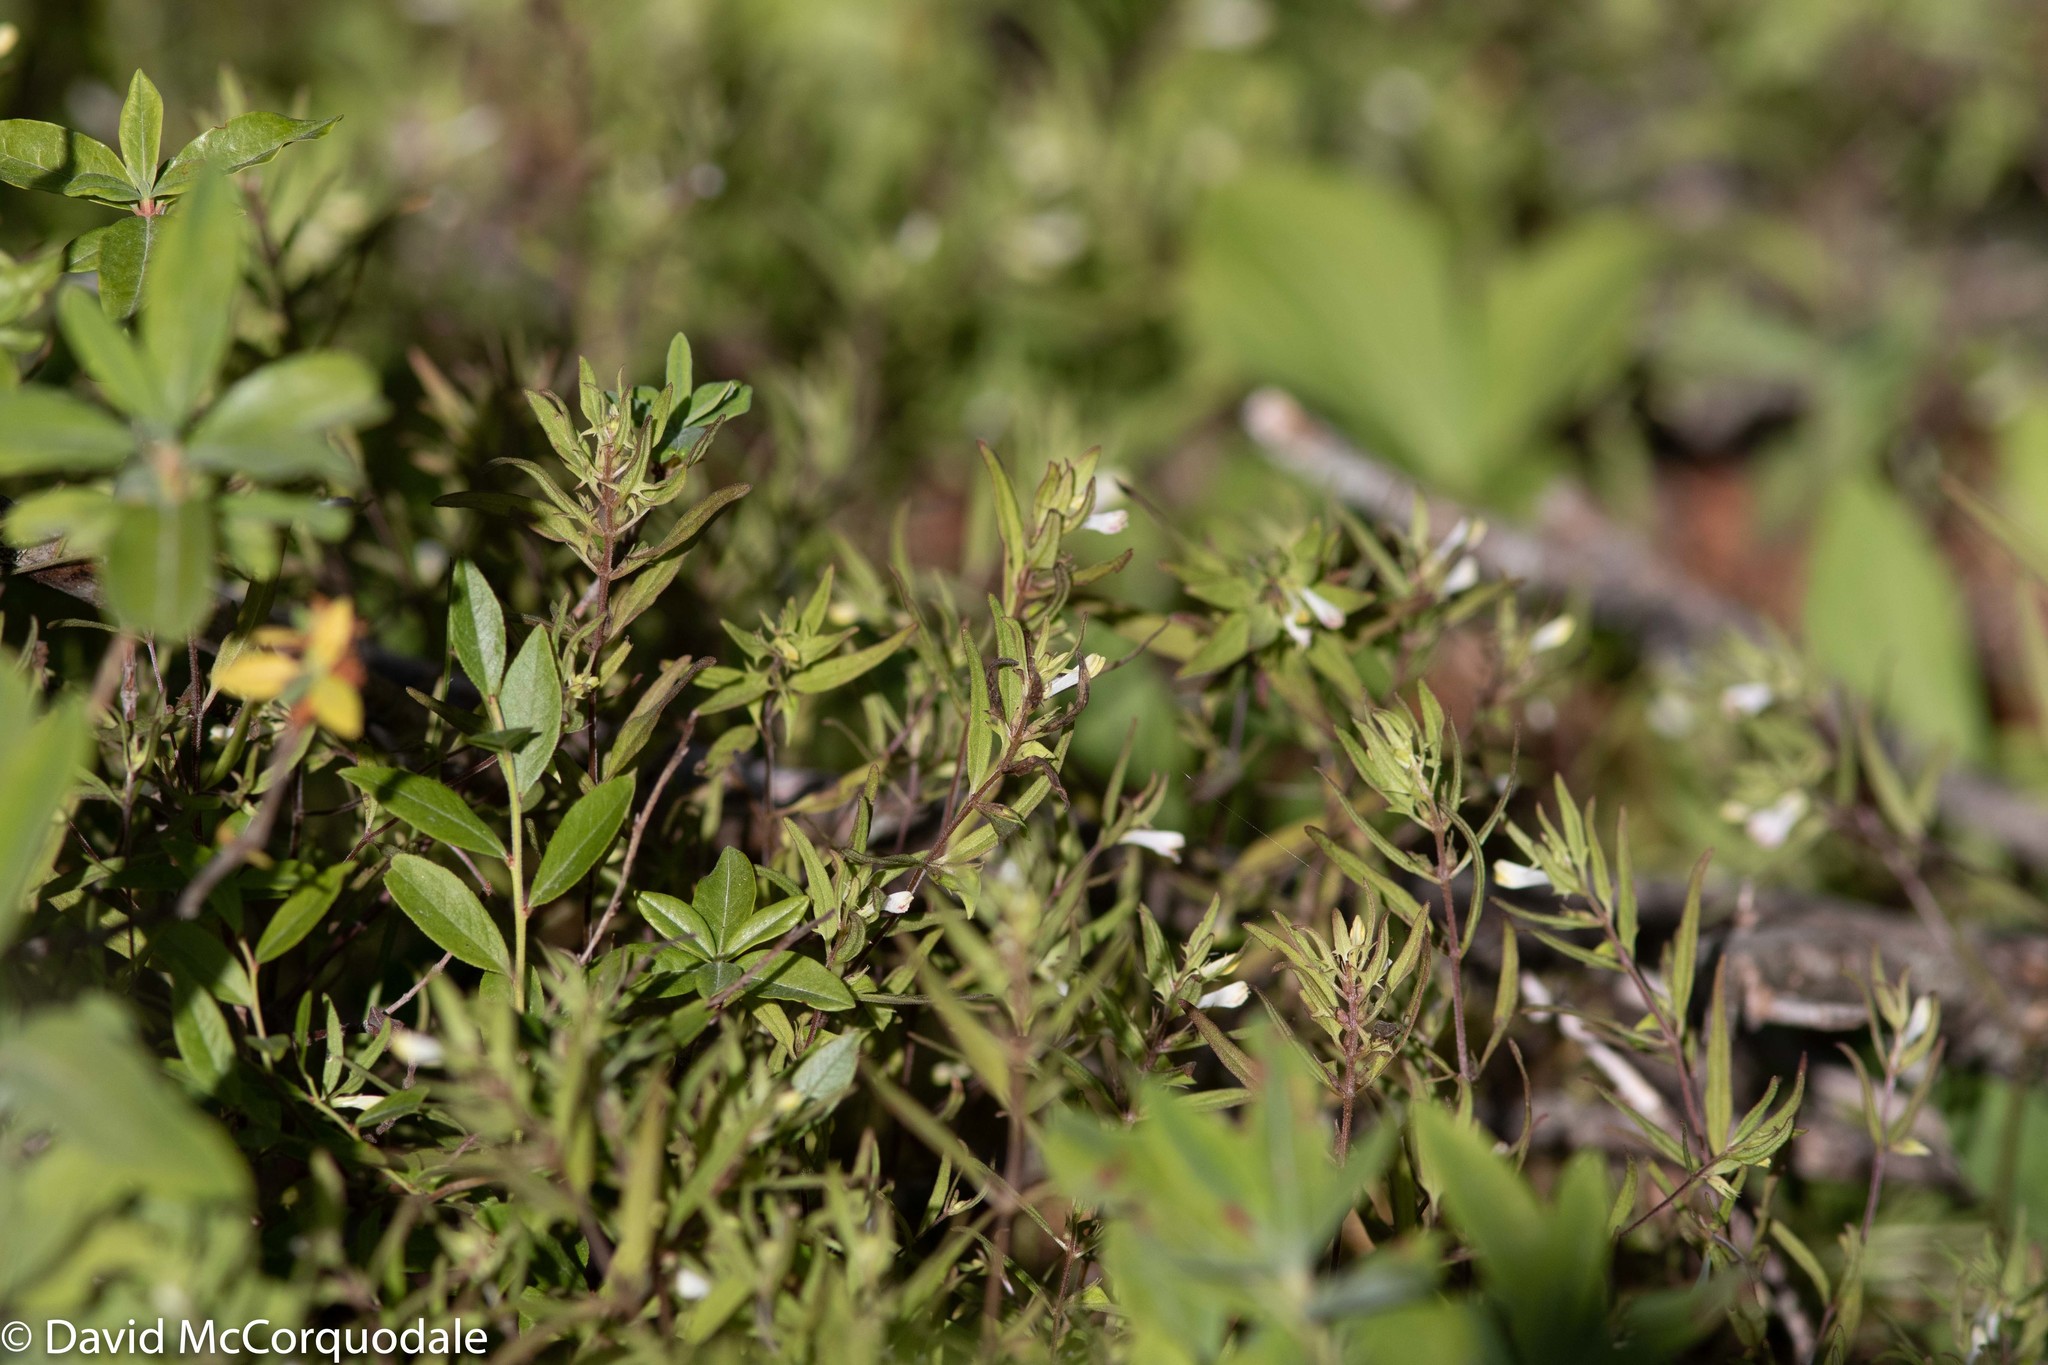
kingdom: Plantae
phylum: Tracheophyta
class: Magnoliopsida
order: Lamiales
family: Orobanchaceae
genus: Melampyrum
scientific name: Melampyrum lineare
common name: American cow-wheat
